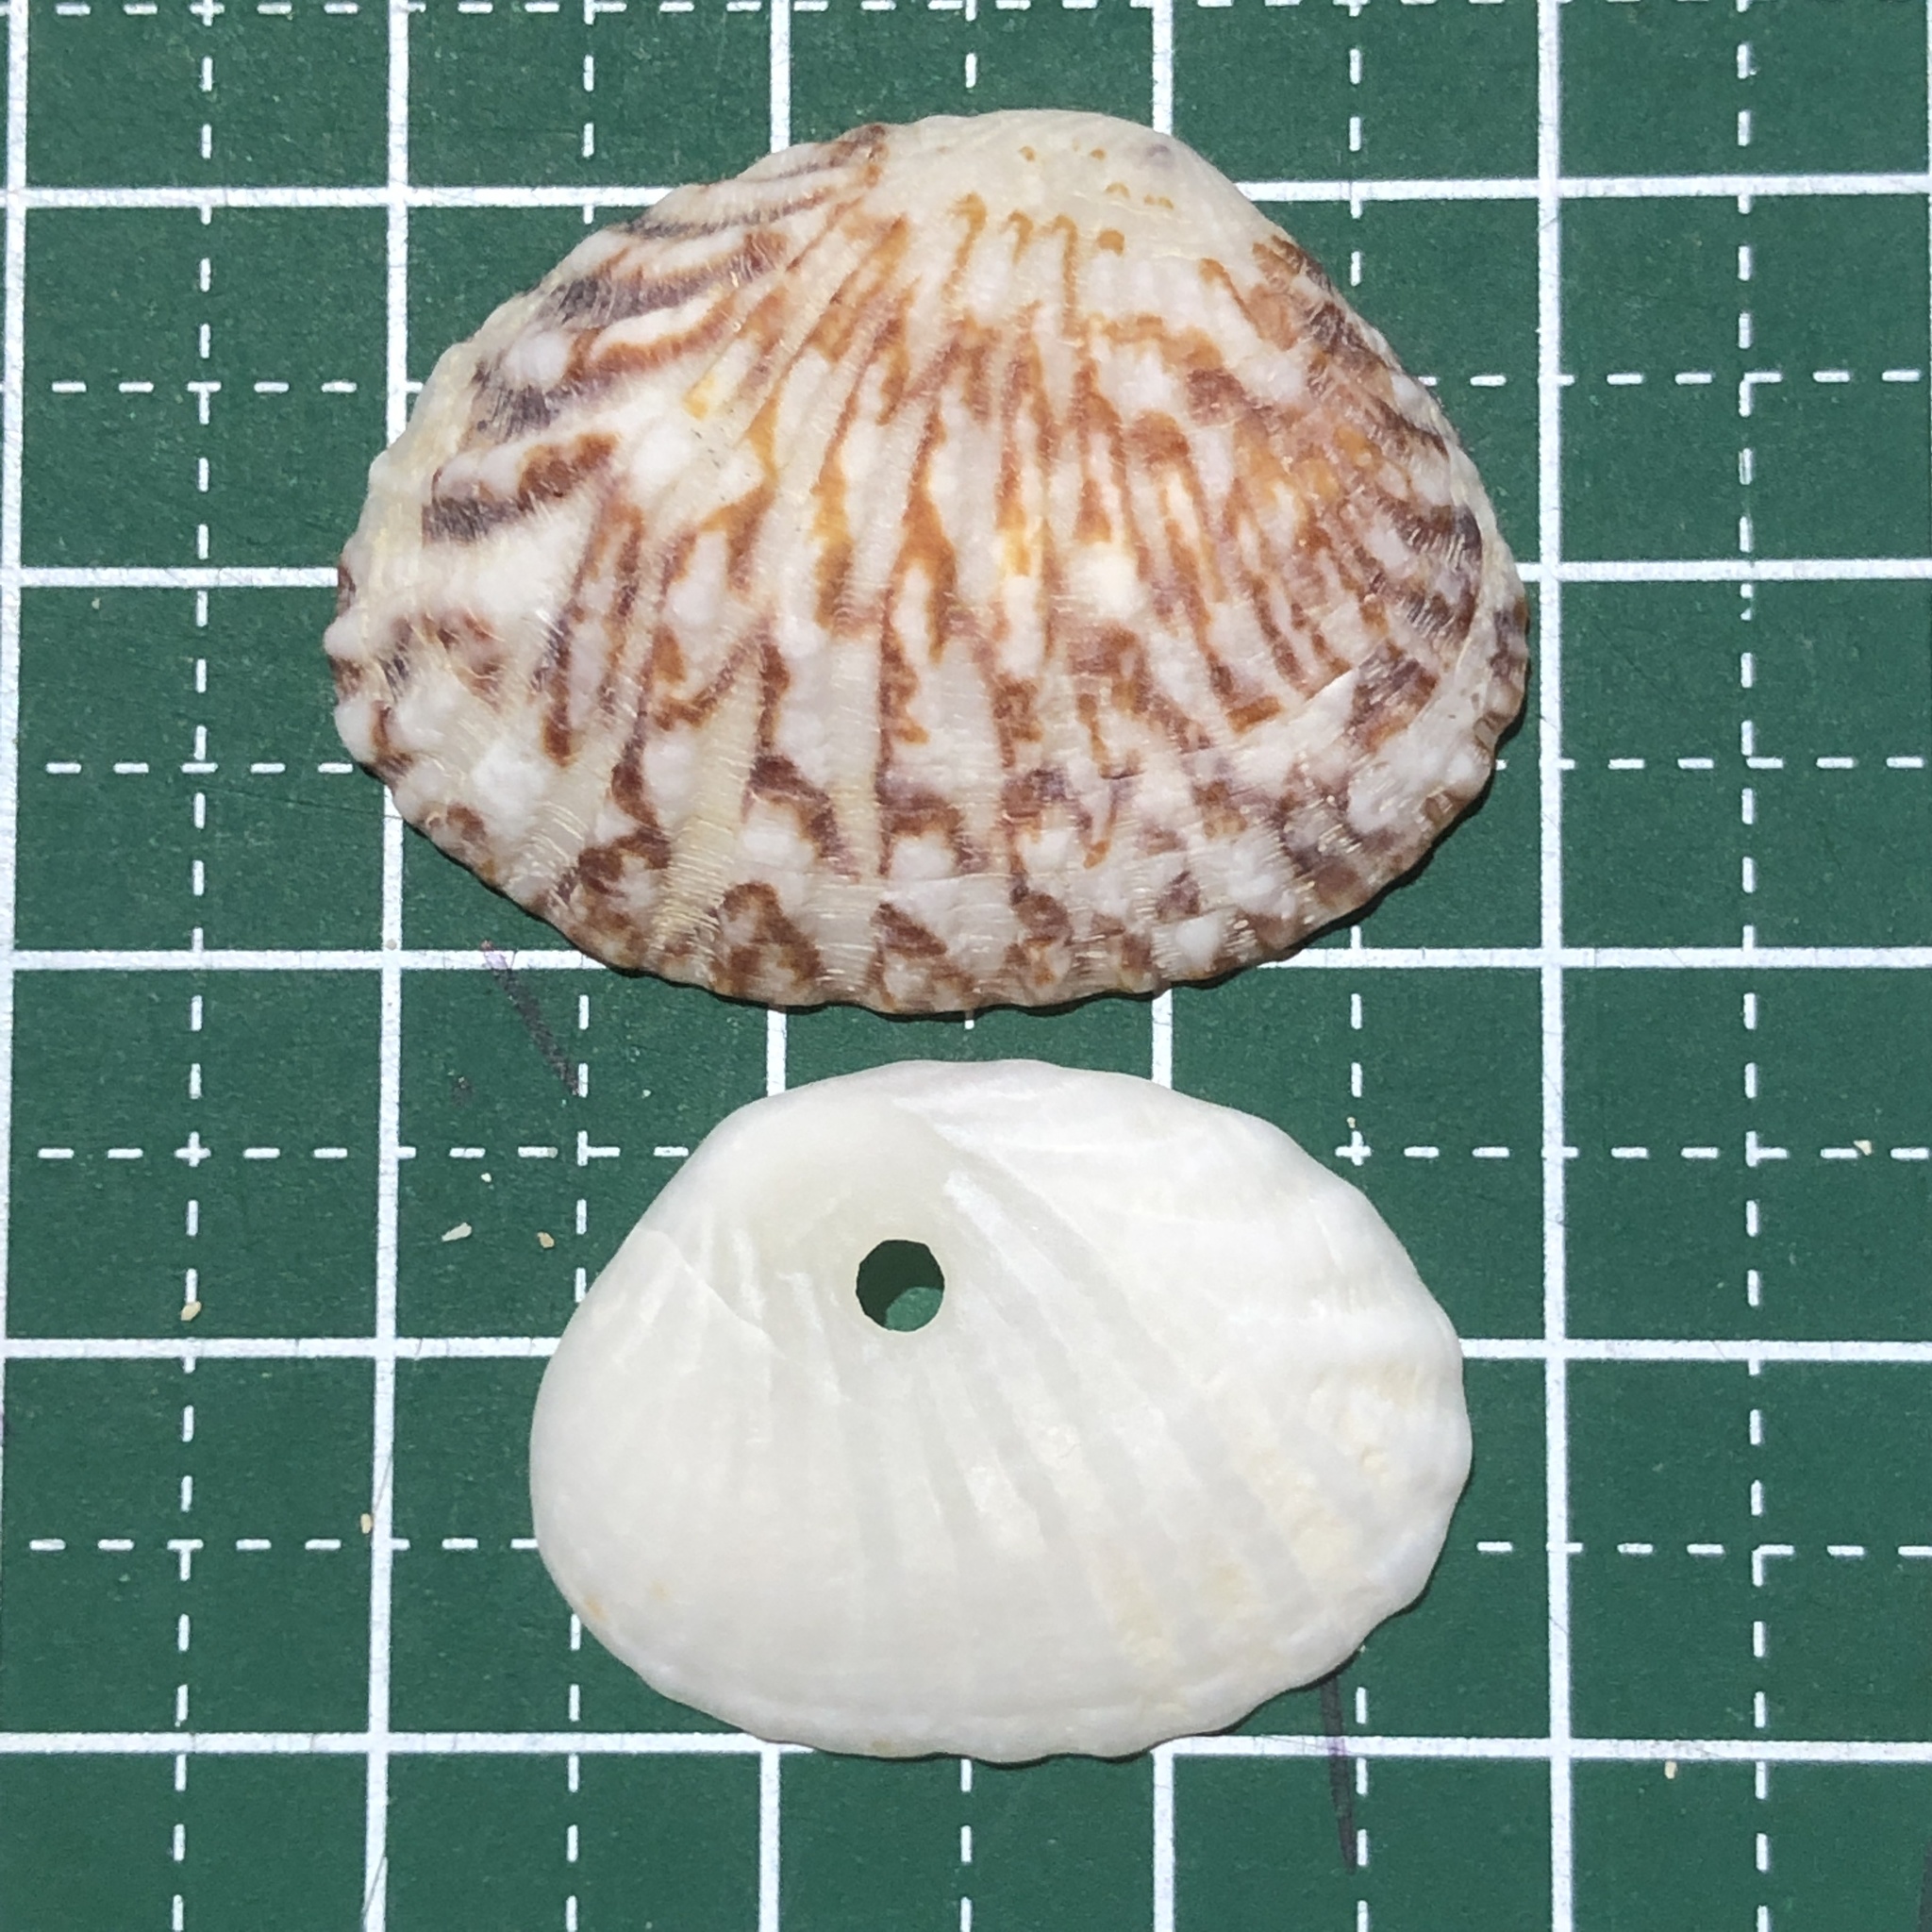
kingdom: Animalia
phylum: Mollusca
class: Bivalvia
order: Venerida
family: Veneridae
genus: Gafrarium
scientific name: Gafrarium pectinatum
